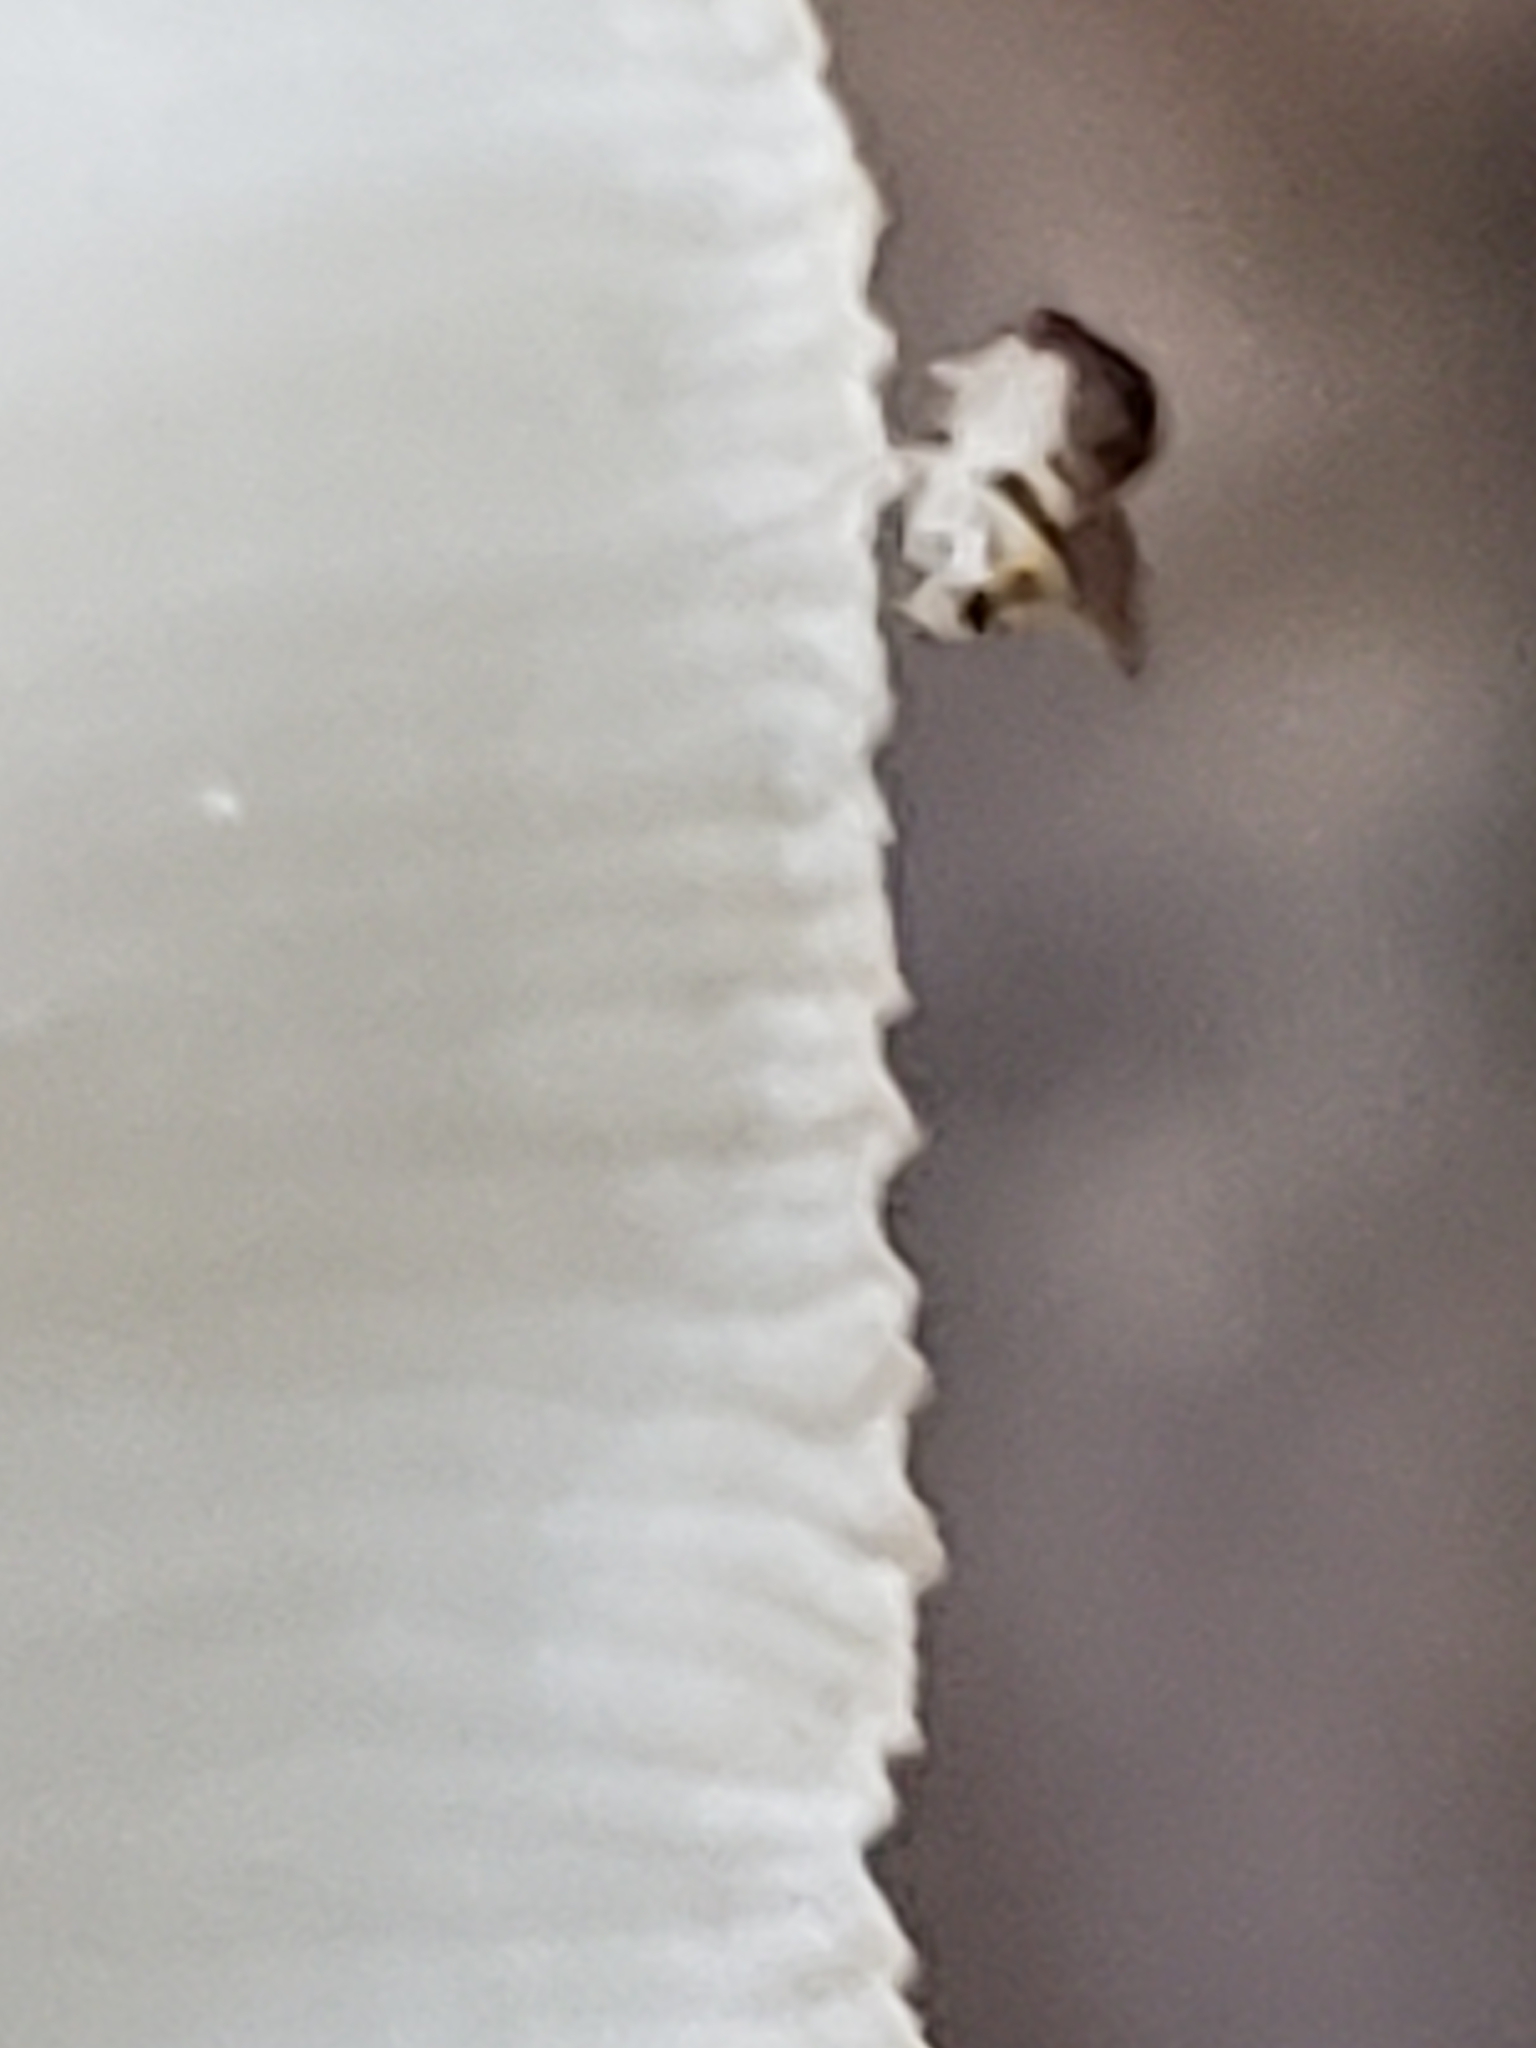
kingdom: Animalia
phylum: Arthropoda
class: Insecta
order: Diptera
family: Drosophilidae
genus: Mycodrosophila
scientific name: Mycodrosophila dimidiata
